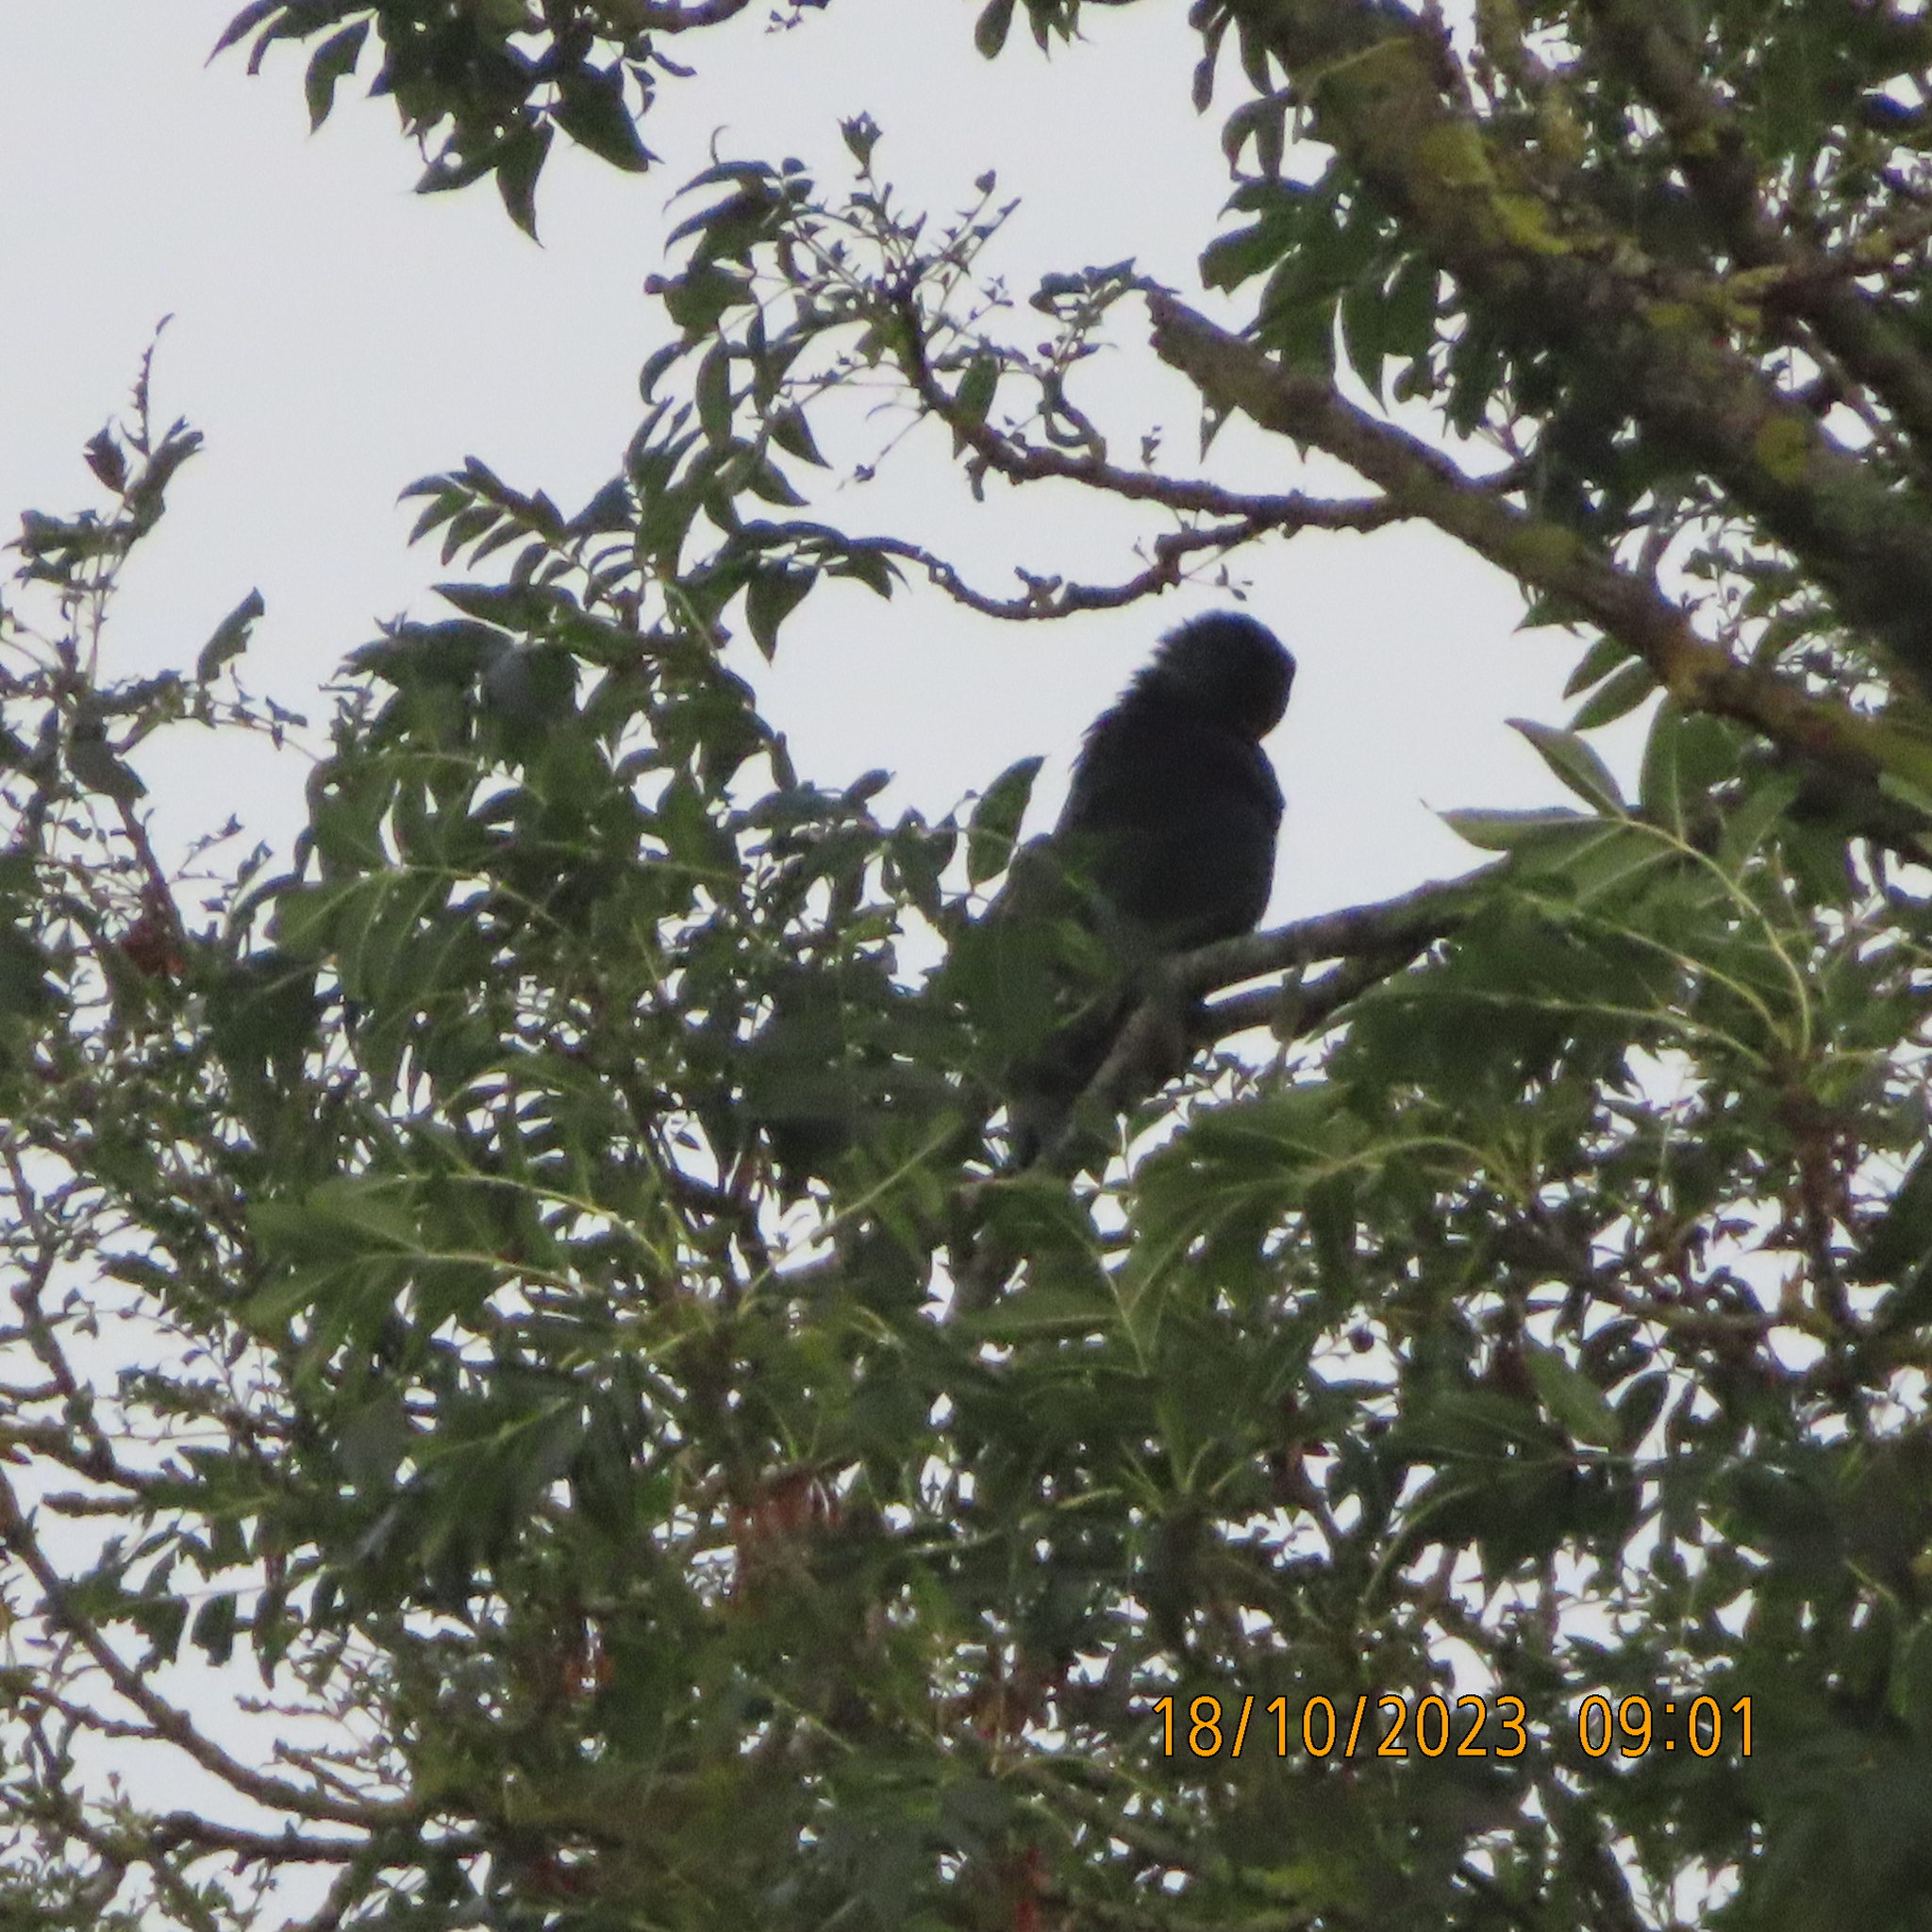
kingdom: Animalia
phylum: Chordata
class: Aves
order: Passeriformes
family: Corvidae
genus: Corvus
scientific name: Corvus corone
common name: Carrion crow
